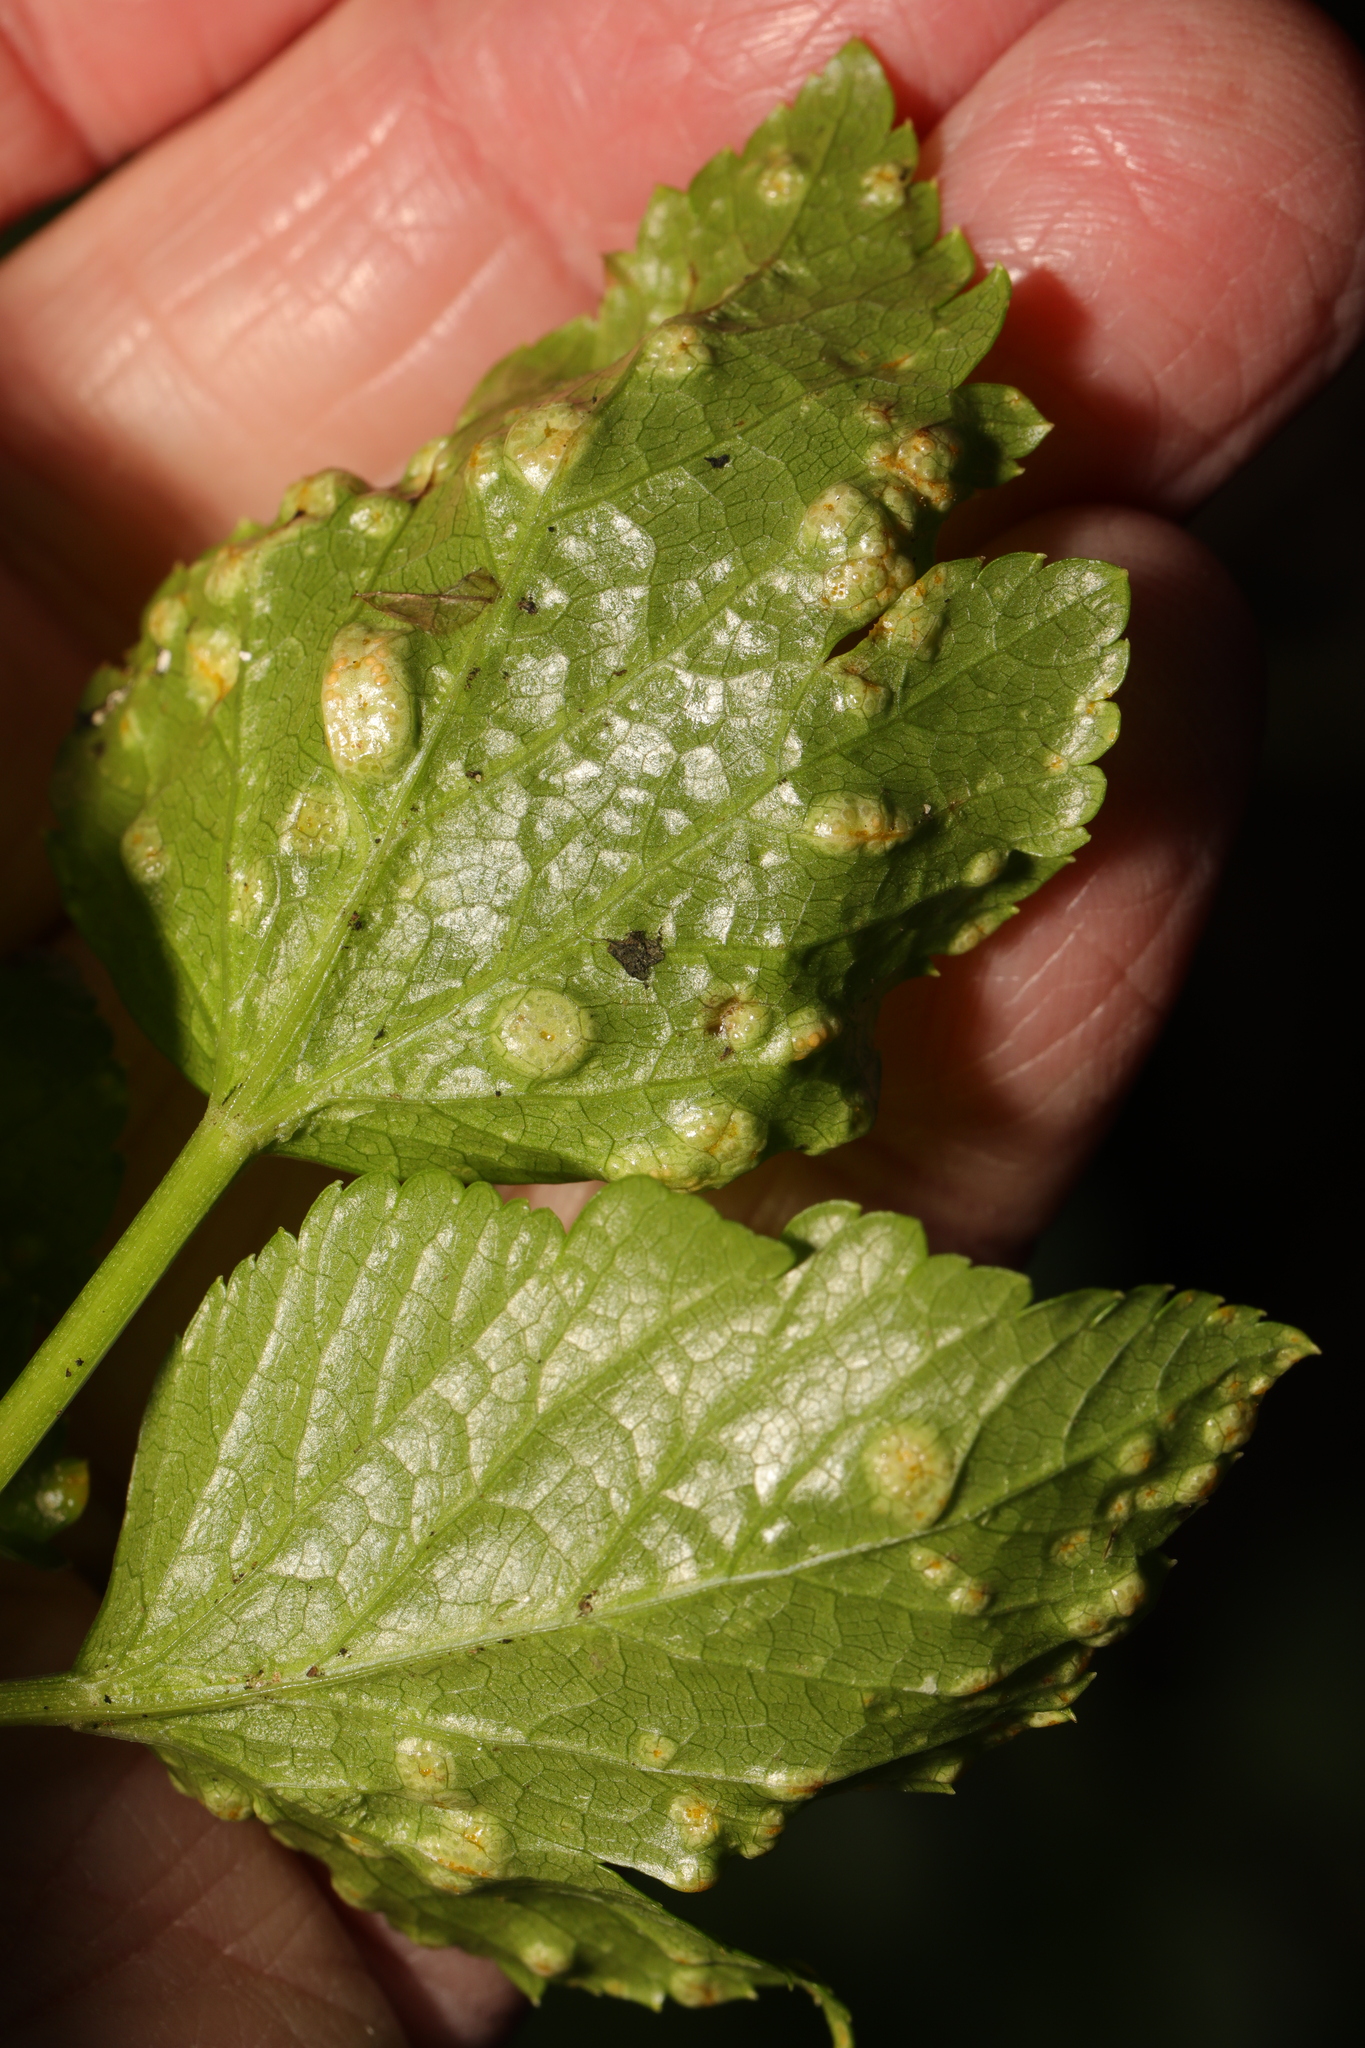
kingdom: Fungi
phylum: Basidiomycota
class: Pucciniomycetes
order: Pucciniales
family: Pucciniaceae
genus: Puccinia
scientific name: Puccinia smyrnii
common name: Alexanders rust
